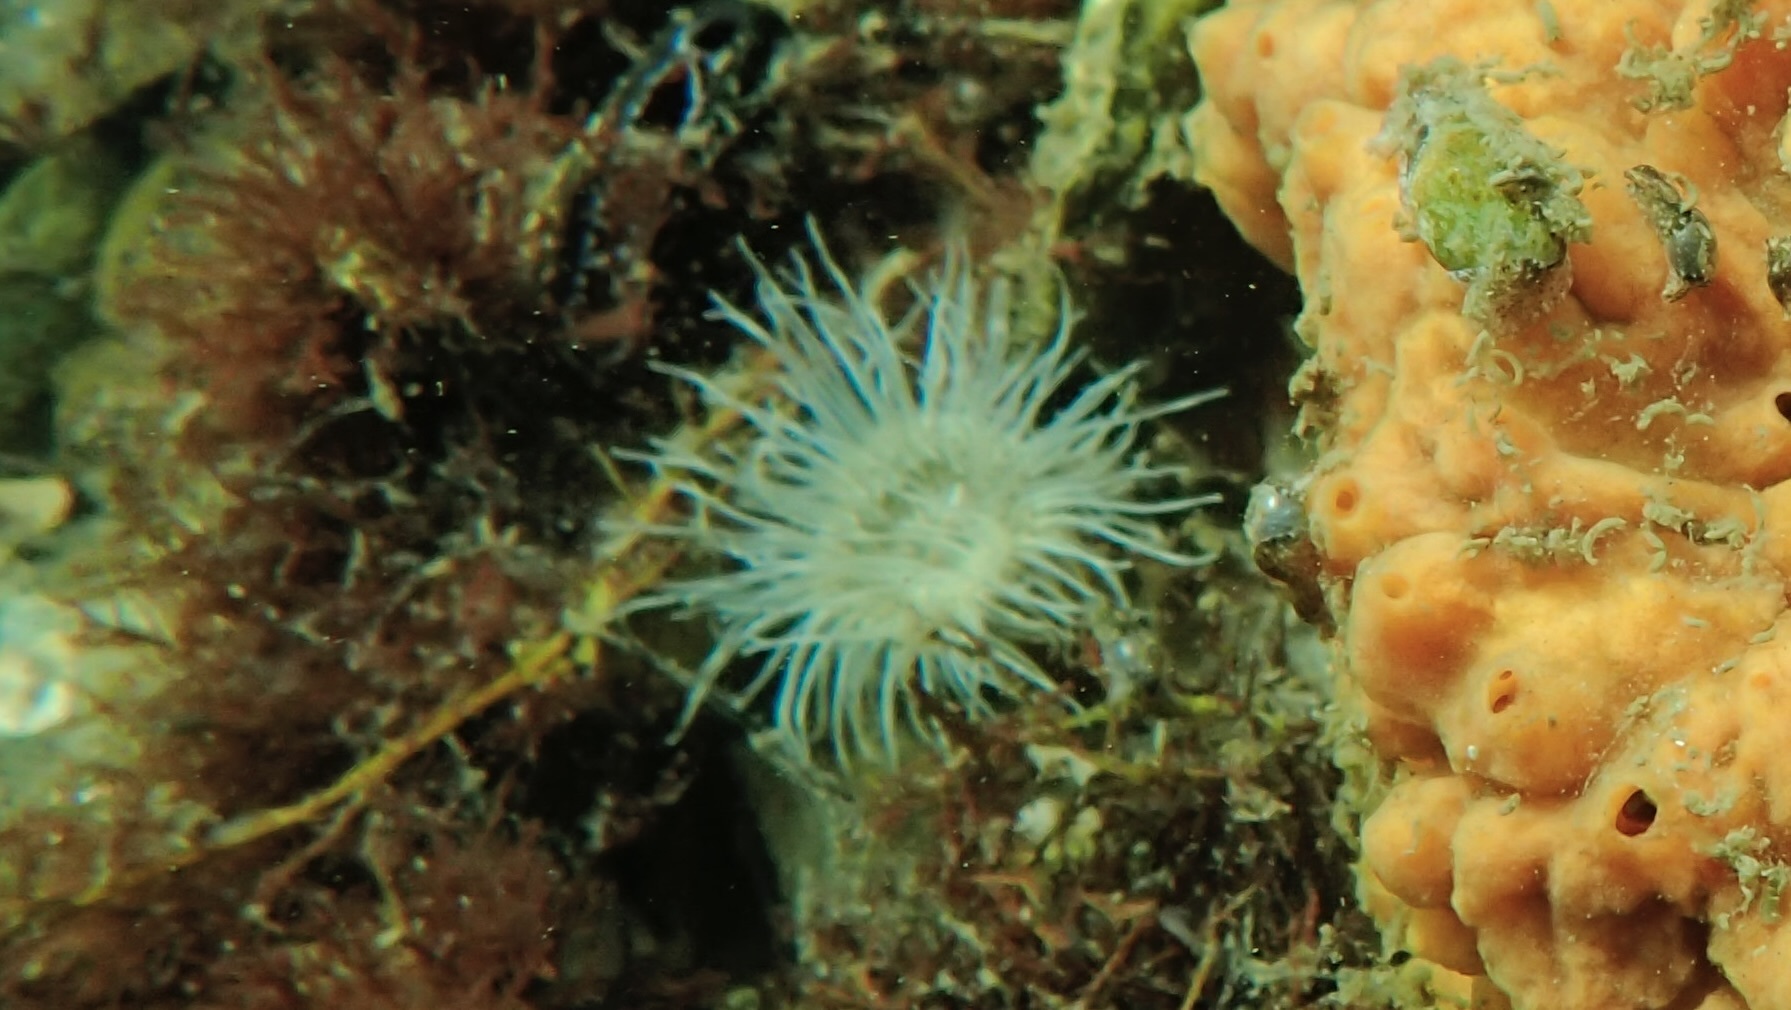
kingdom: Animalia
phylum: Cnidaria
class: Anthozoa
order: Actiniaria
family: Sagartiidae
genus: Sagartia
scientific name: Sagartia undata
